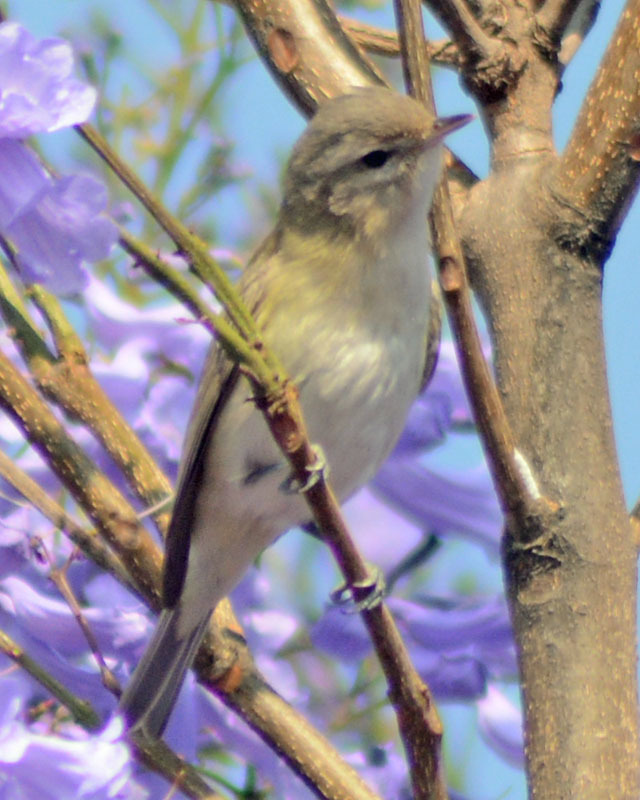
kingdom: Animalia
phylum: Chordata
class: Aves
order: Passeriformes
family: Vireonidae
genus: Vireo
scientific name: Vireo gilvus
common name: Warbling vireo
